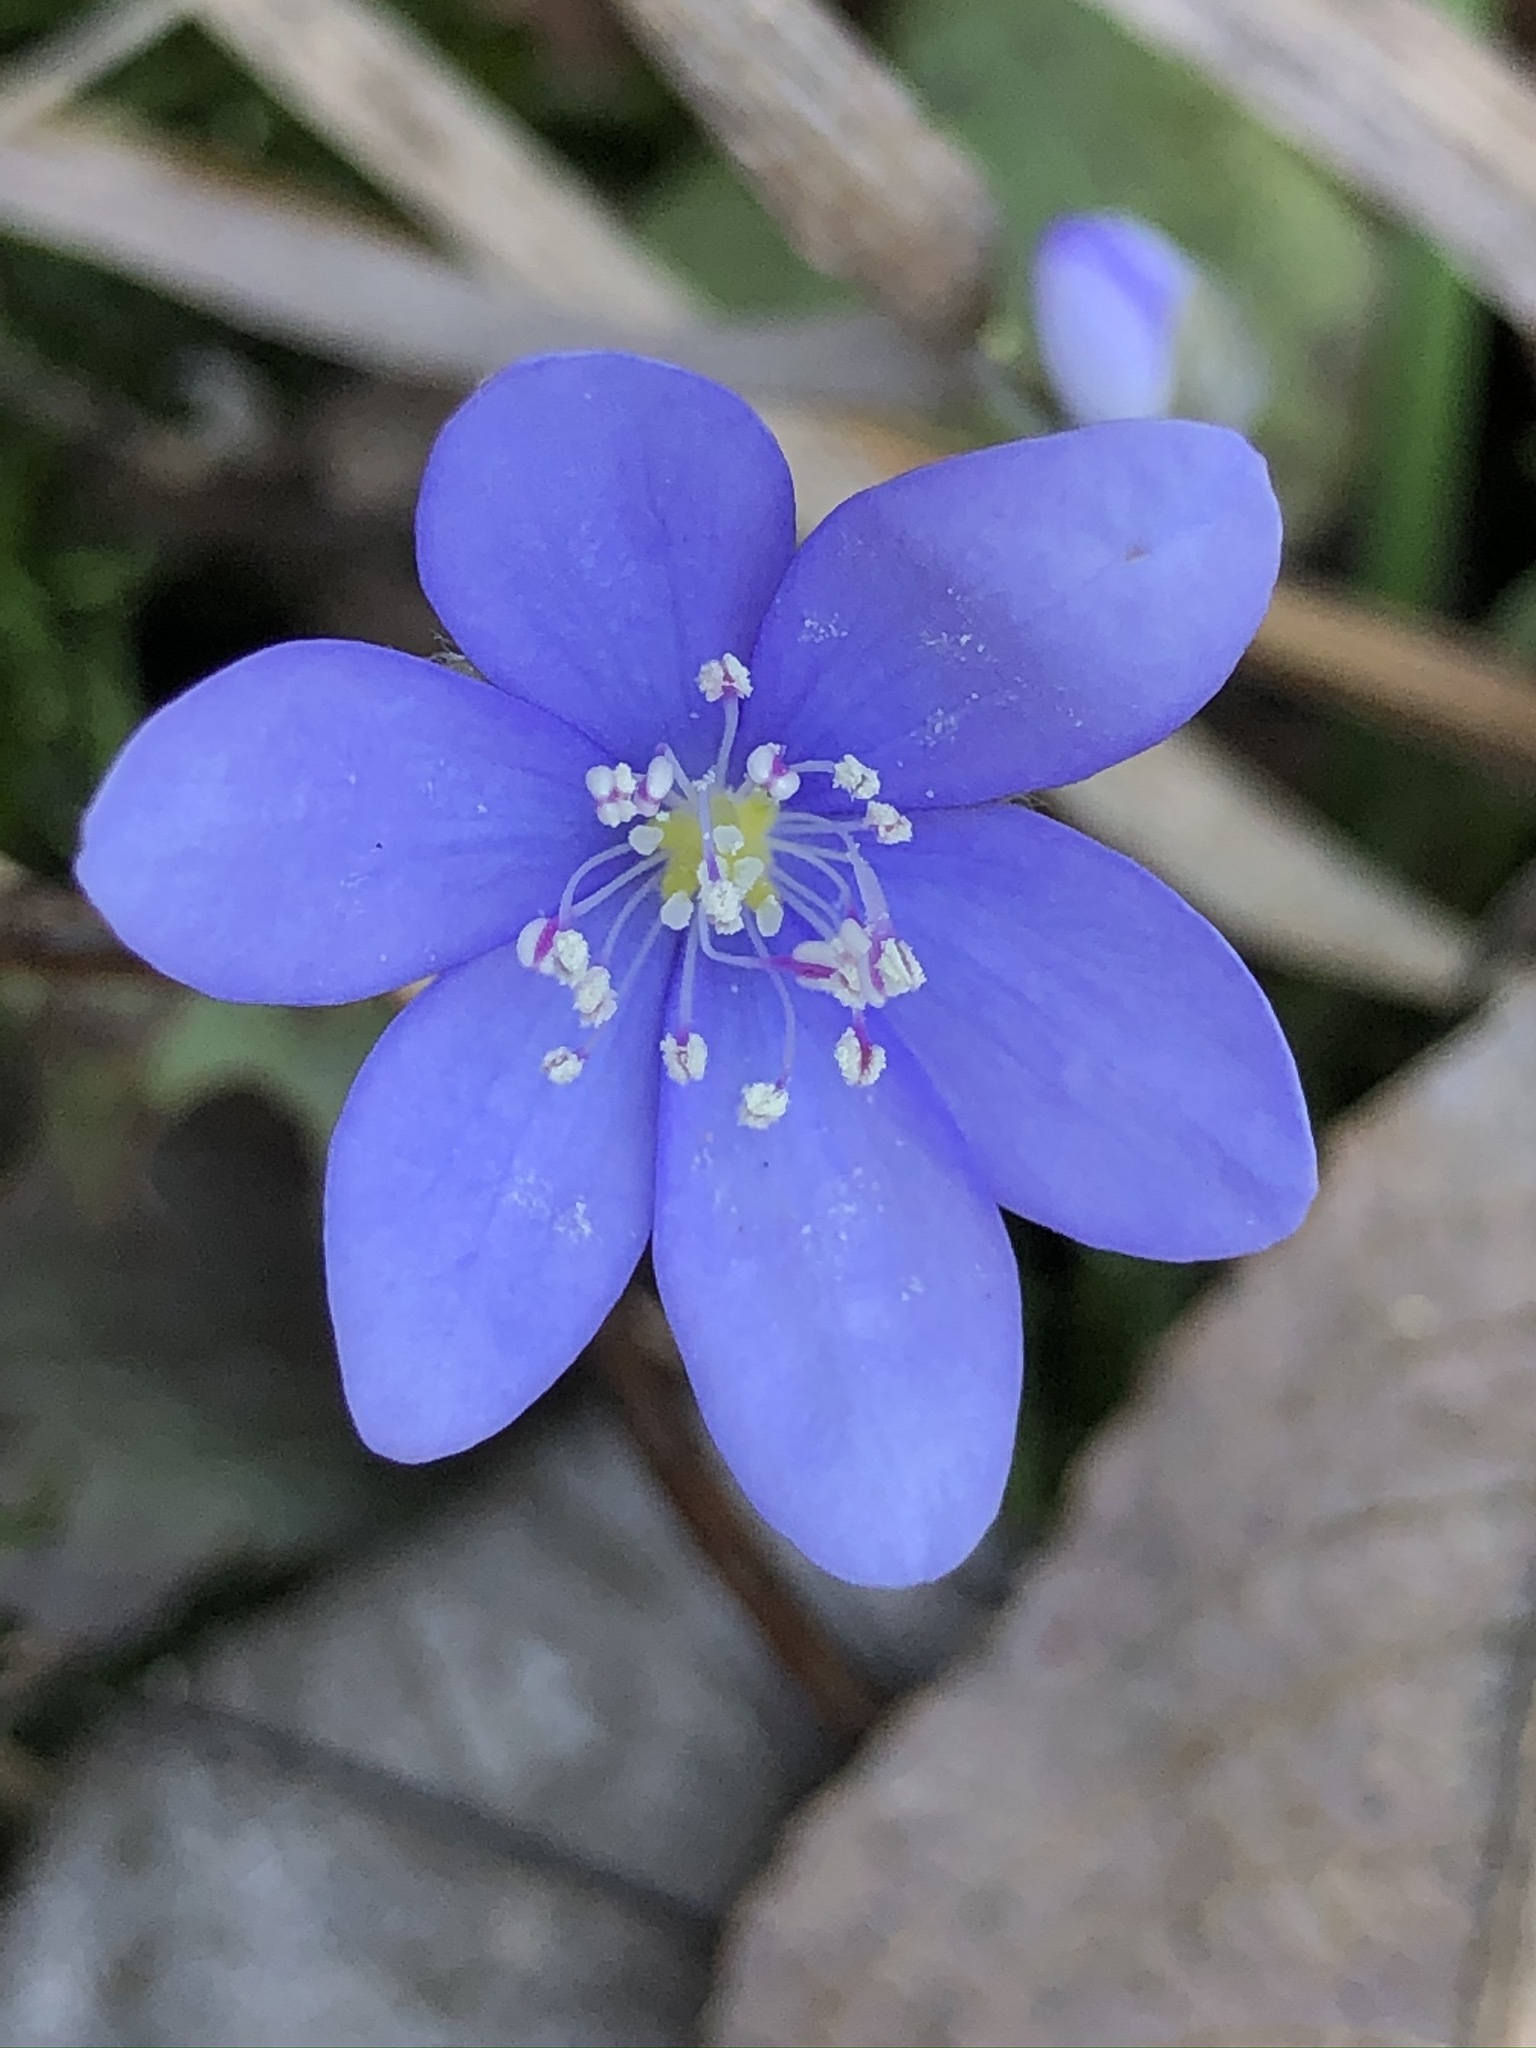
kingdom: Plantae
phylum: Tracheophyta
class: Magnoliopsida
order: Ranunculales
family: Ranunculaceae
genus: Hepatica
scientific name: Hepatica nobilis
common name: Liverleaf
